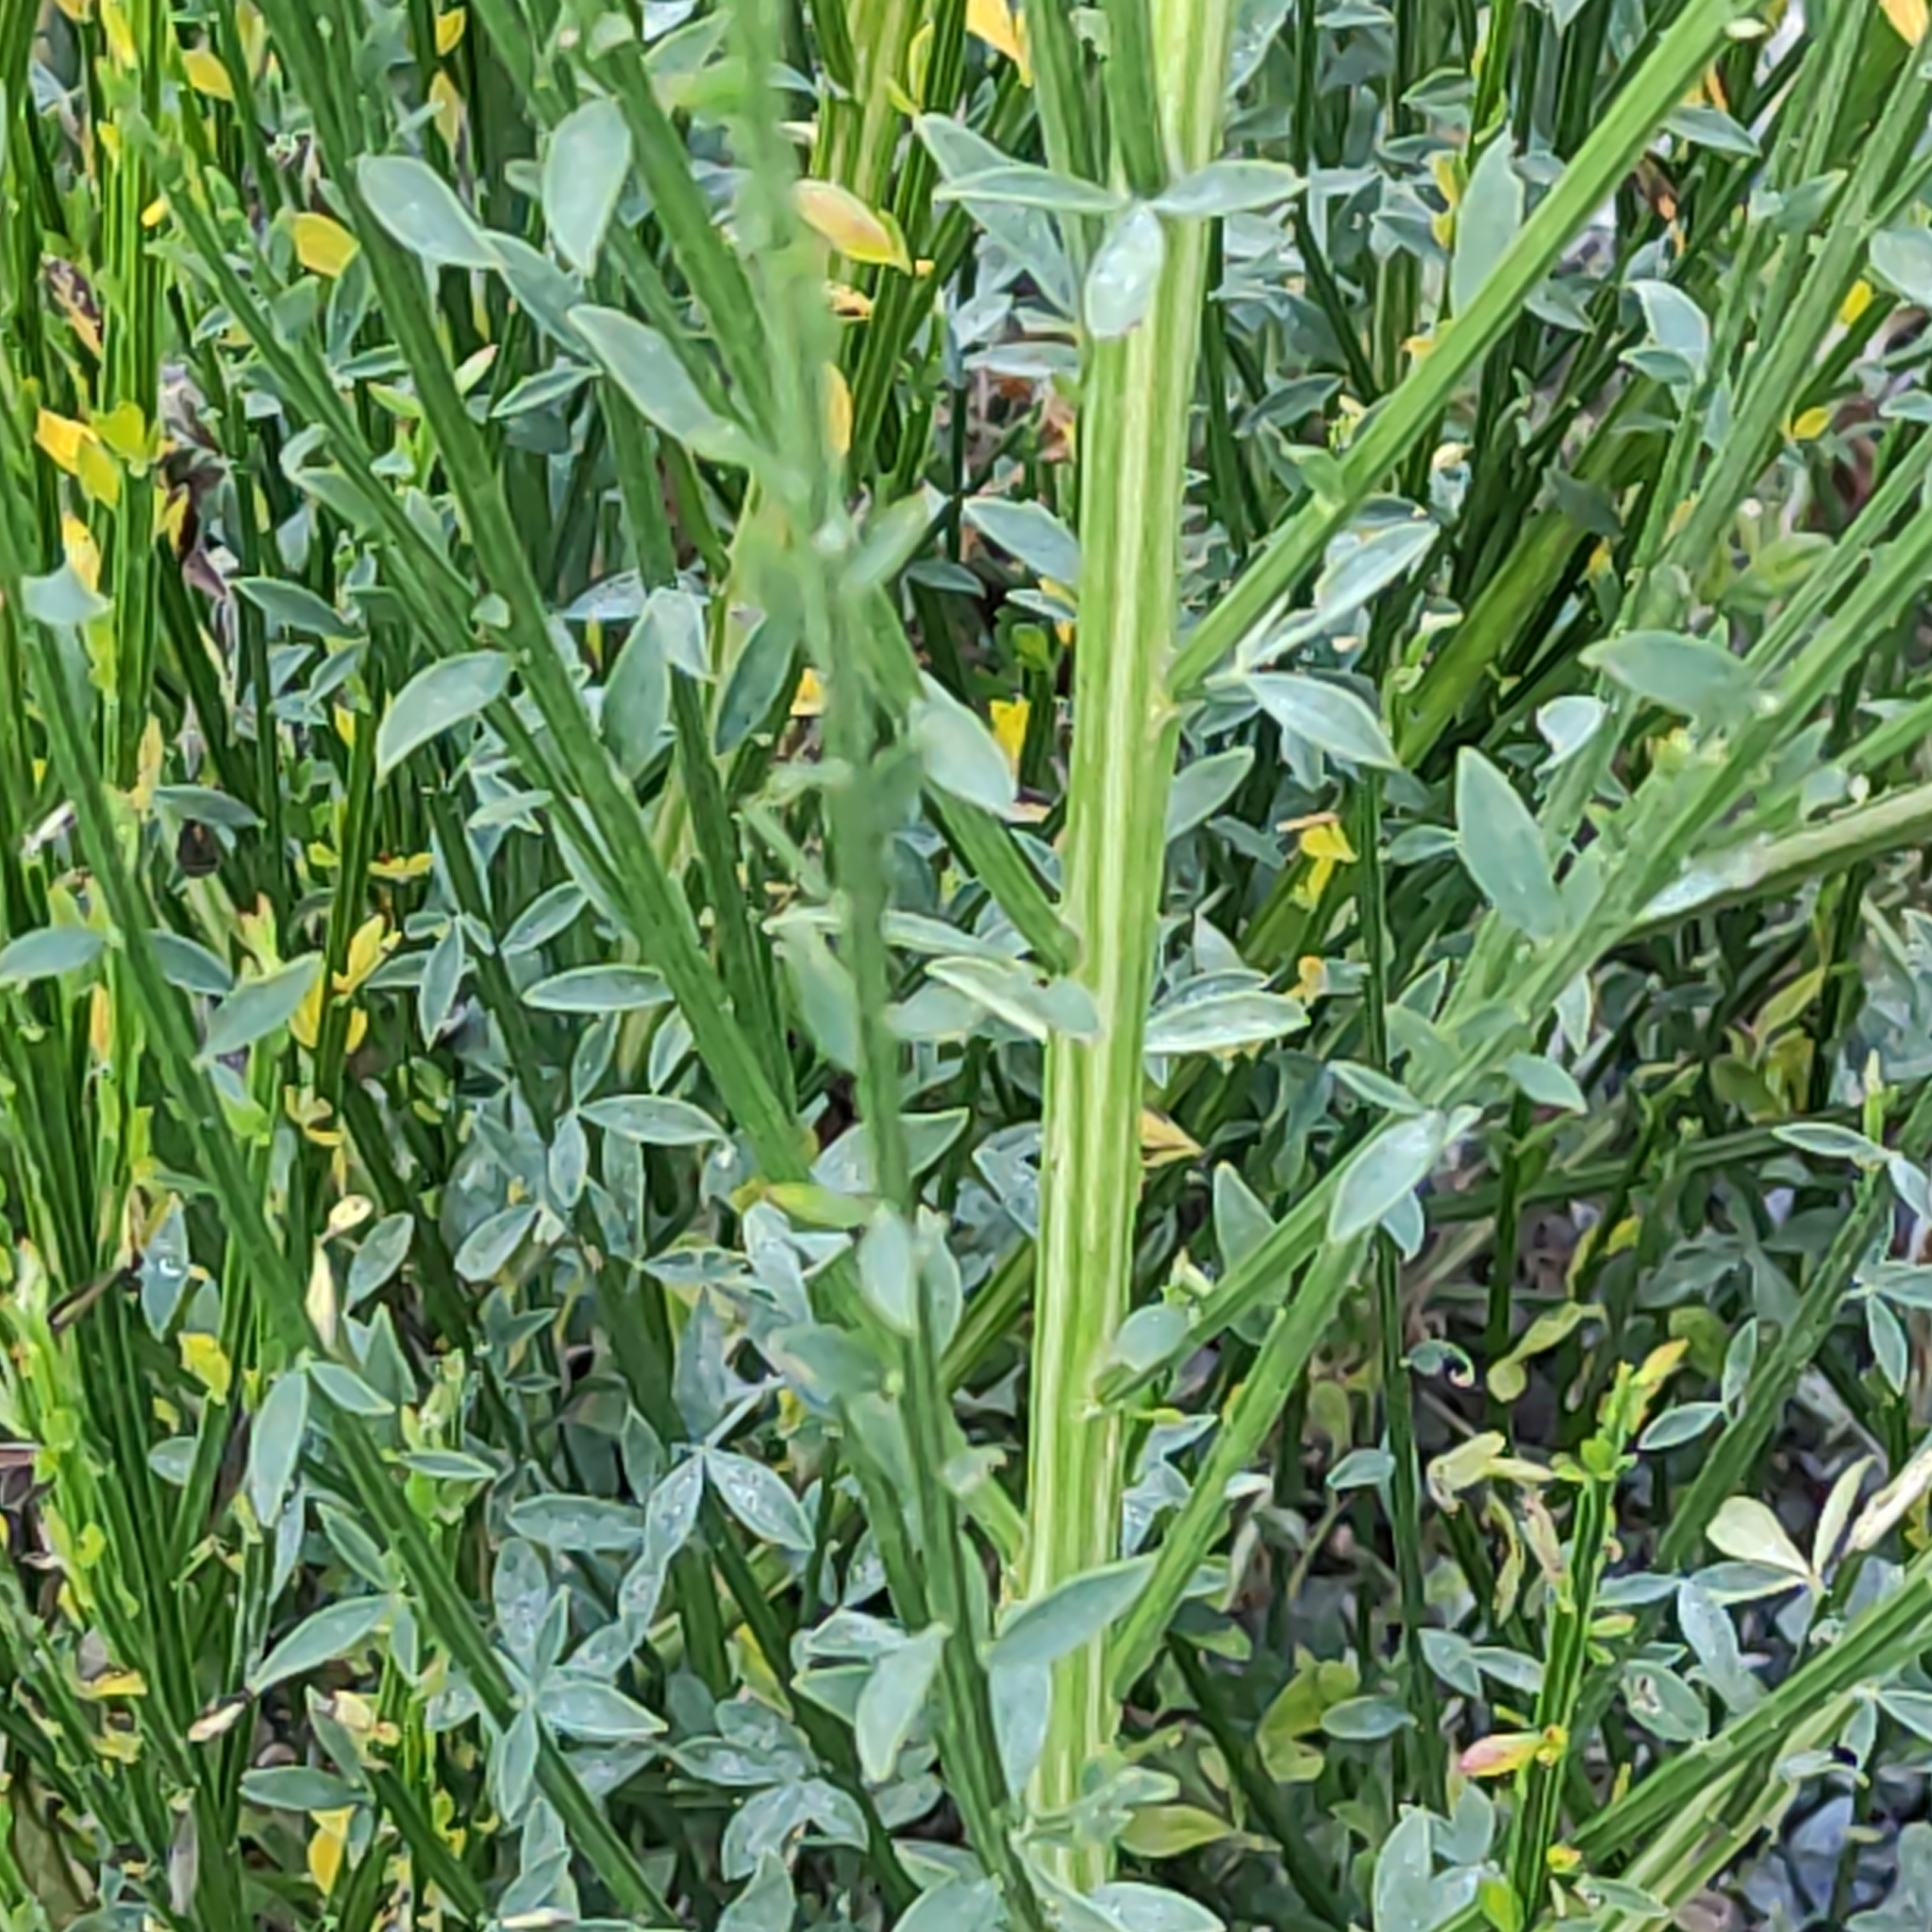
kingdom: Plantae
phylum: Tracheophyta
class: Magnoliopsida
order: Fabales
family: Fabaceae
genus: Cytisus
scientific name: Cytisus scoparius
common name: Scotch broom
